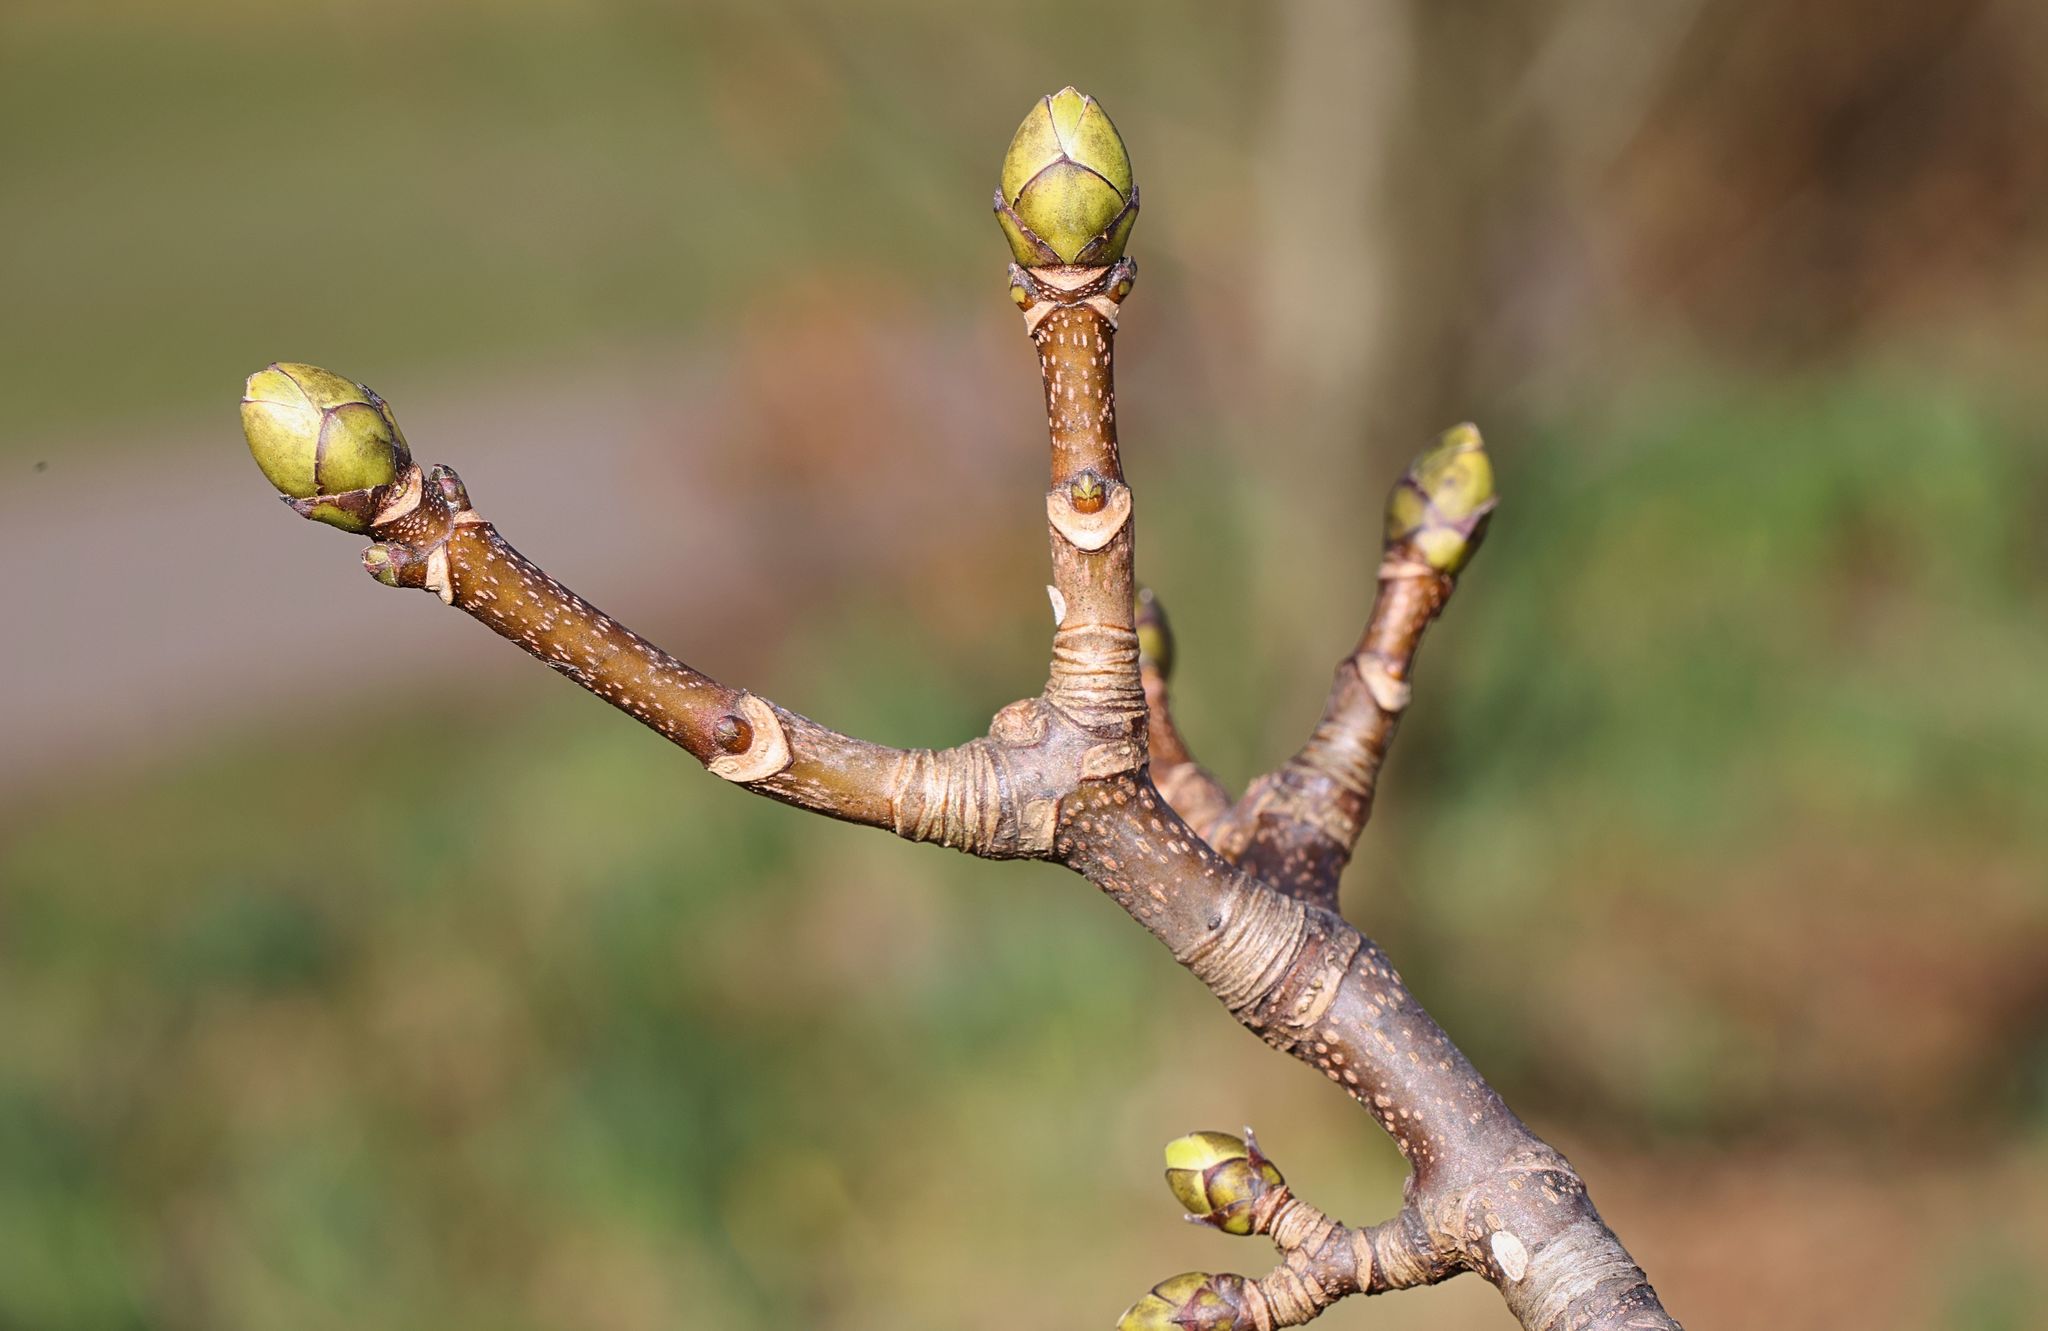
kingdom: Plantae
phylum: Tracheophyta
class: Magnoliopsida
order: Sapindales
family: Sapindaceae
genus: Acer
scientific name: Acer pseudoplatanus
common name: Sycamore
